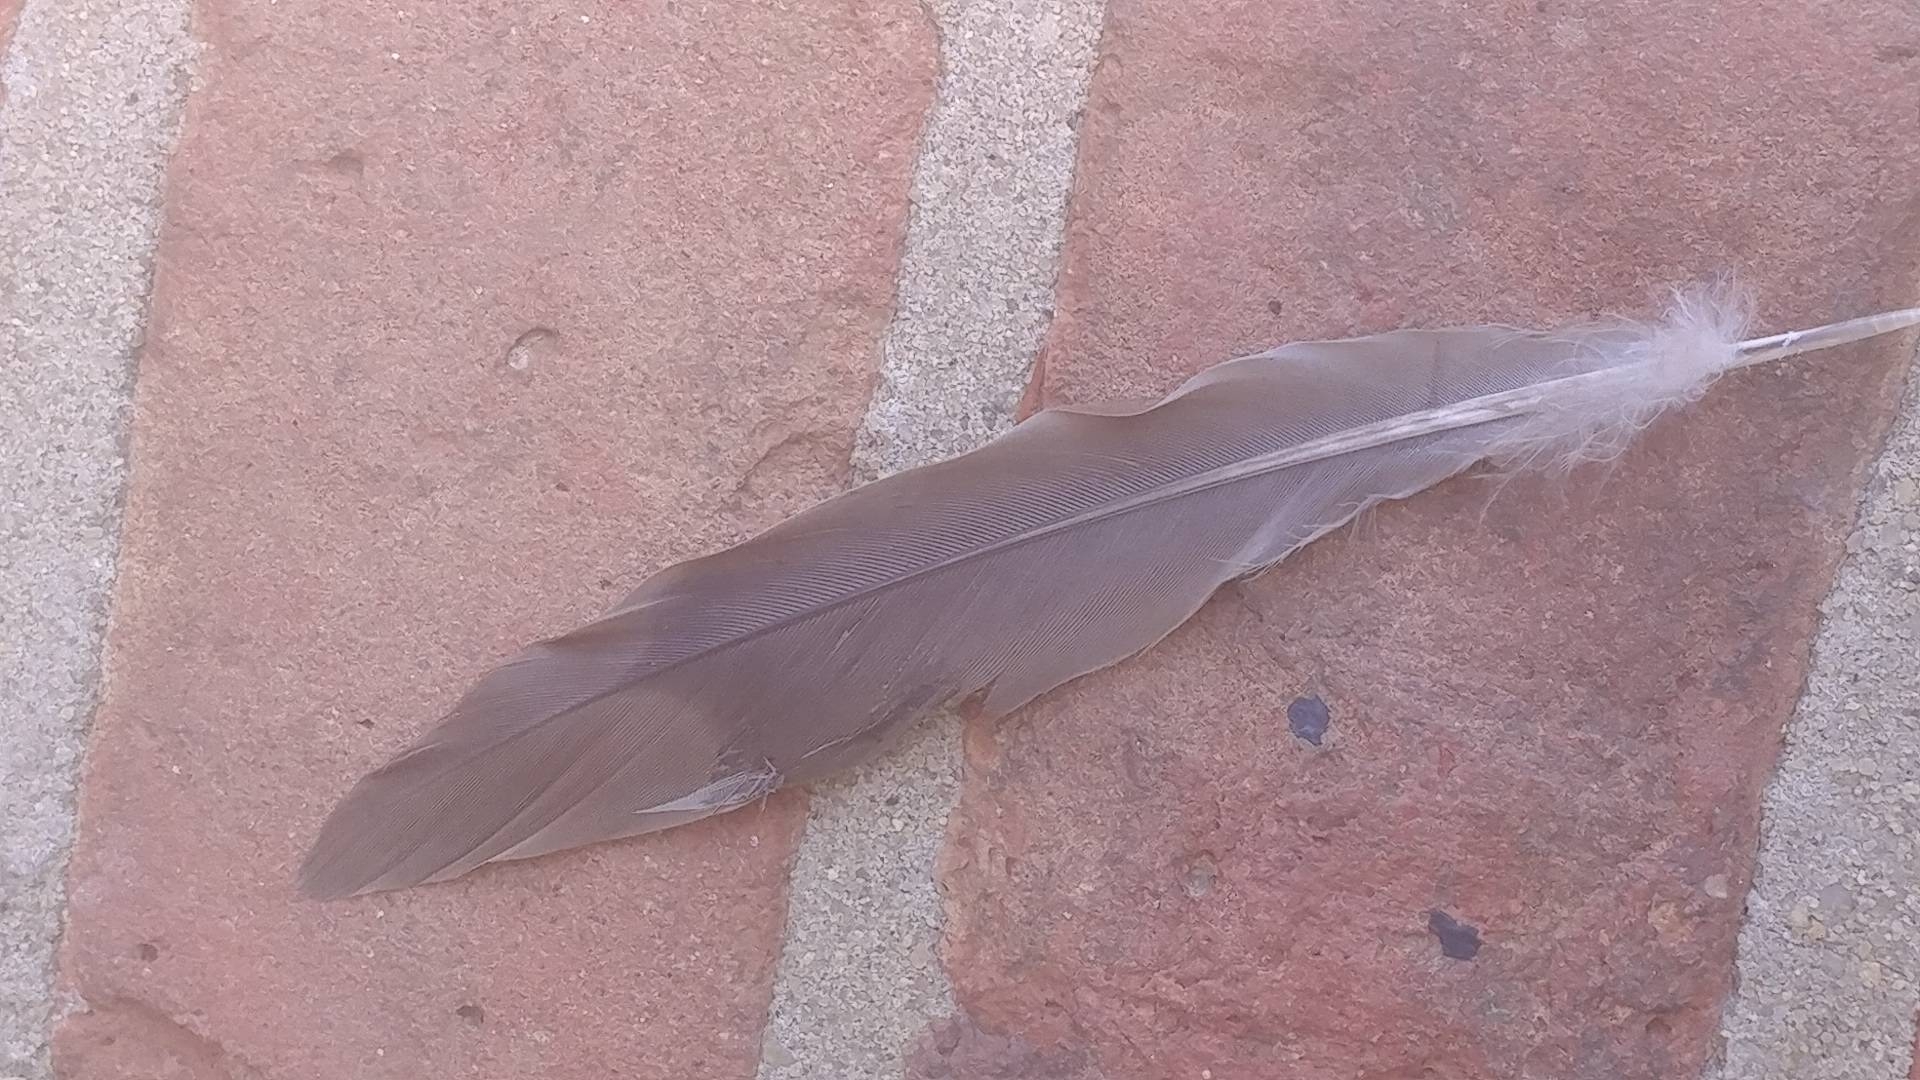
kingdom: Animalia
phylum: Chordata
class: Aves
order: Columbiformes
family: Columbidae
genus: Zenaida
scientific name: Zenaida macroura
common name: Mourning dove
